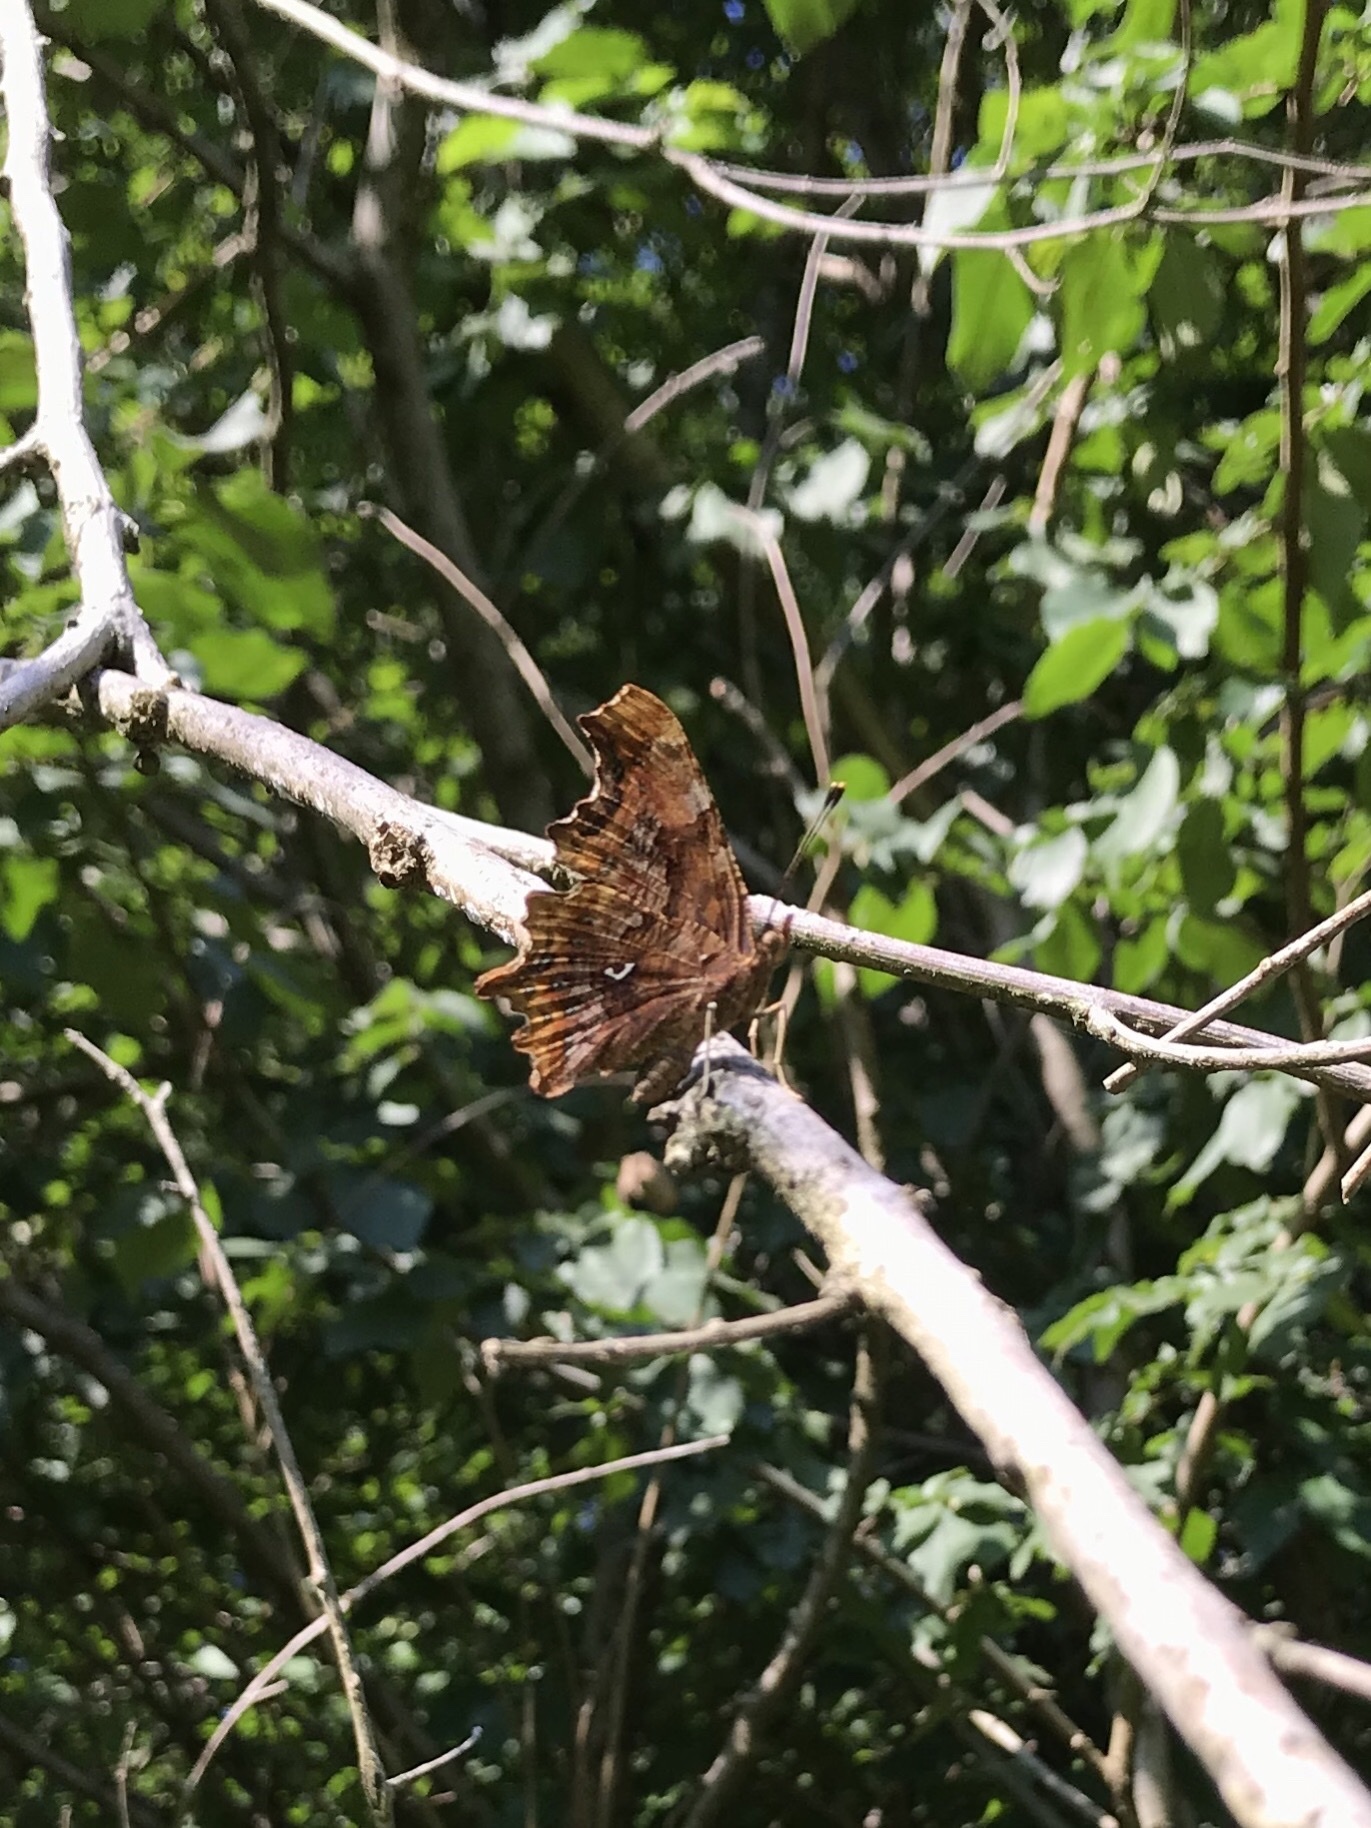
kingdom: Animalia
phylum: Arthropoda
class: Insecta
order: Lepidoptera
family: Nymphalidae
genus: Polygonia
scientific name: Polygonia c-album
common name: Comma
